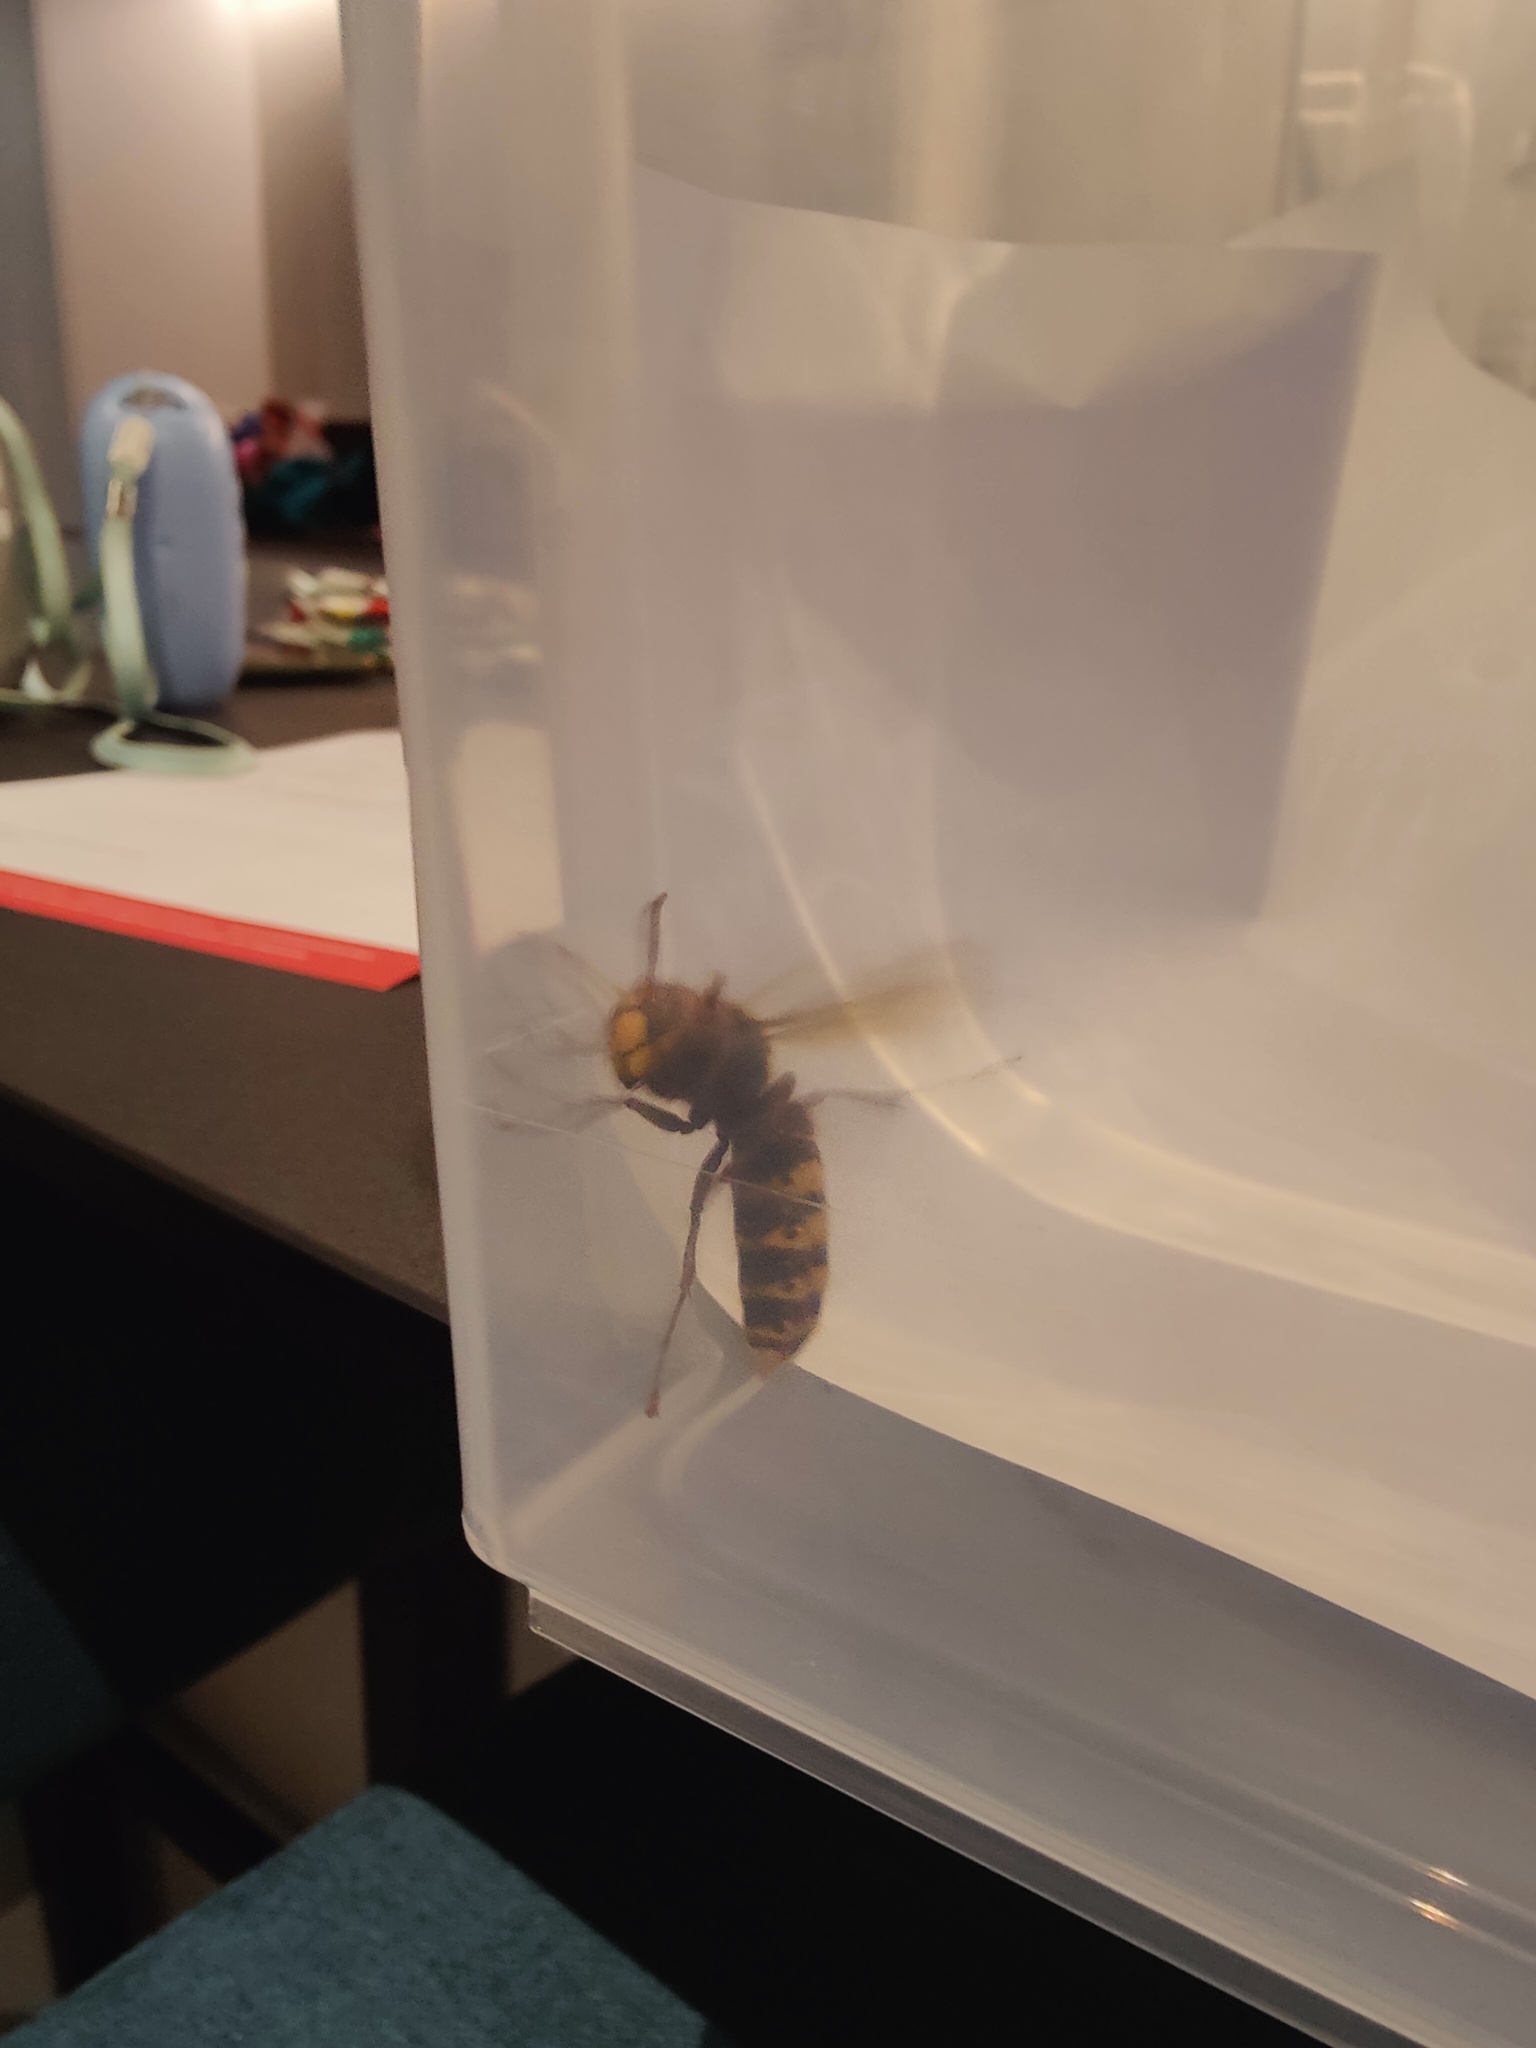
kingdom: Animalia
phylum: Arthropoda
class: Insecta
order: Hymenoptera
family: Vespidae
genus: Vespa
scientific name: Vespa crabro
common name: Hornet
